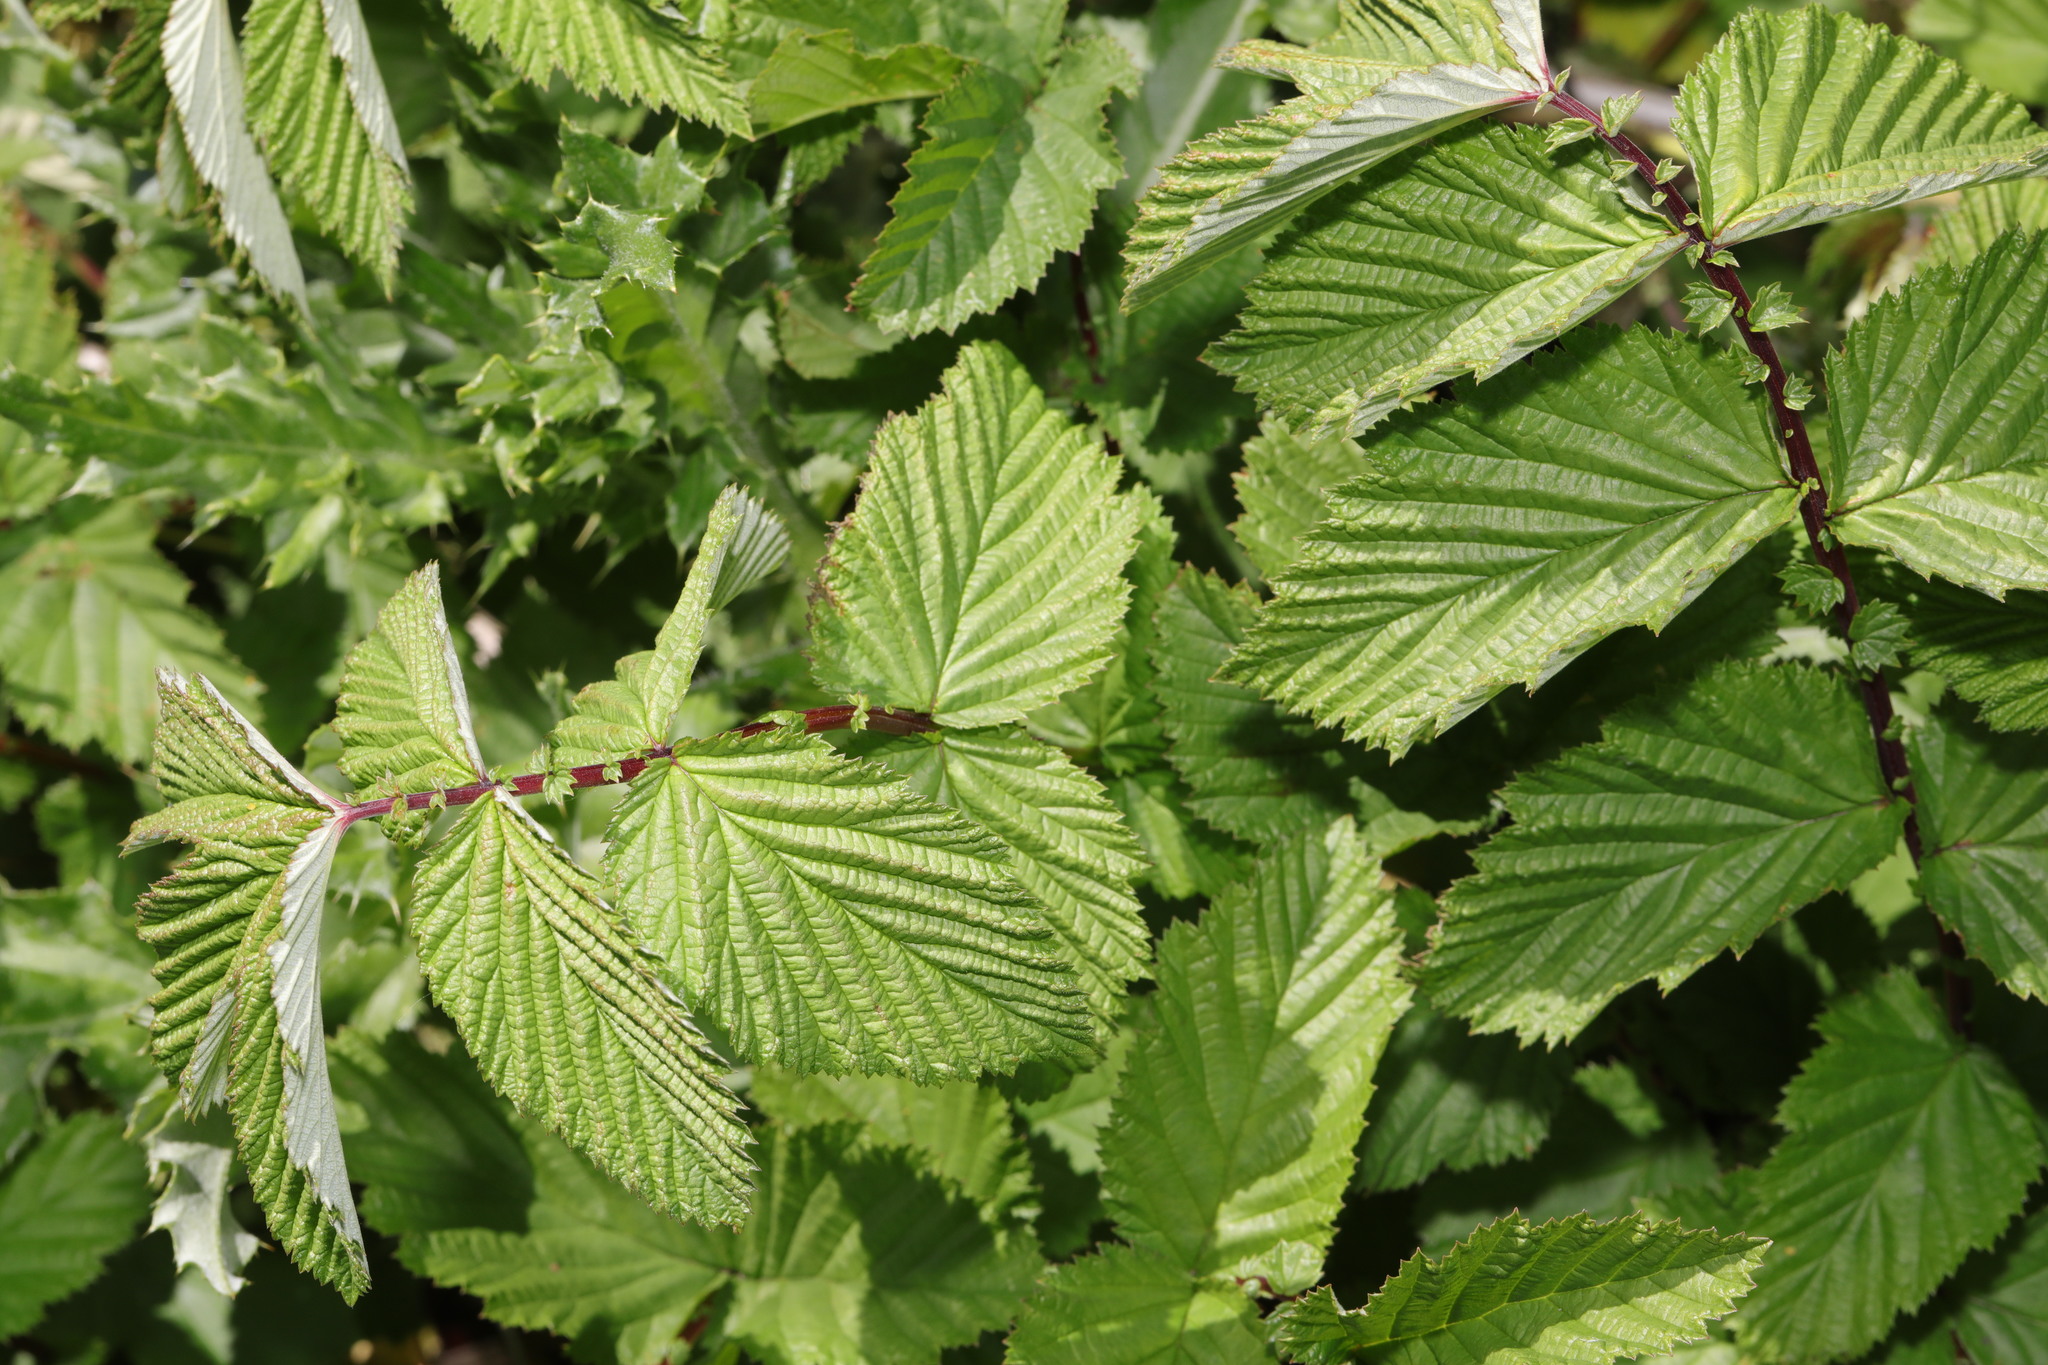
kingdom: Plantae
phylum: Tracheophyta
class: Magnoliopsida
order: Rosales
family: Rosaceae
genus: Filipendula
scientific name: Filipendula ulmaria
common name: Meadowsweet
